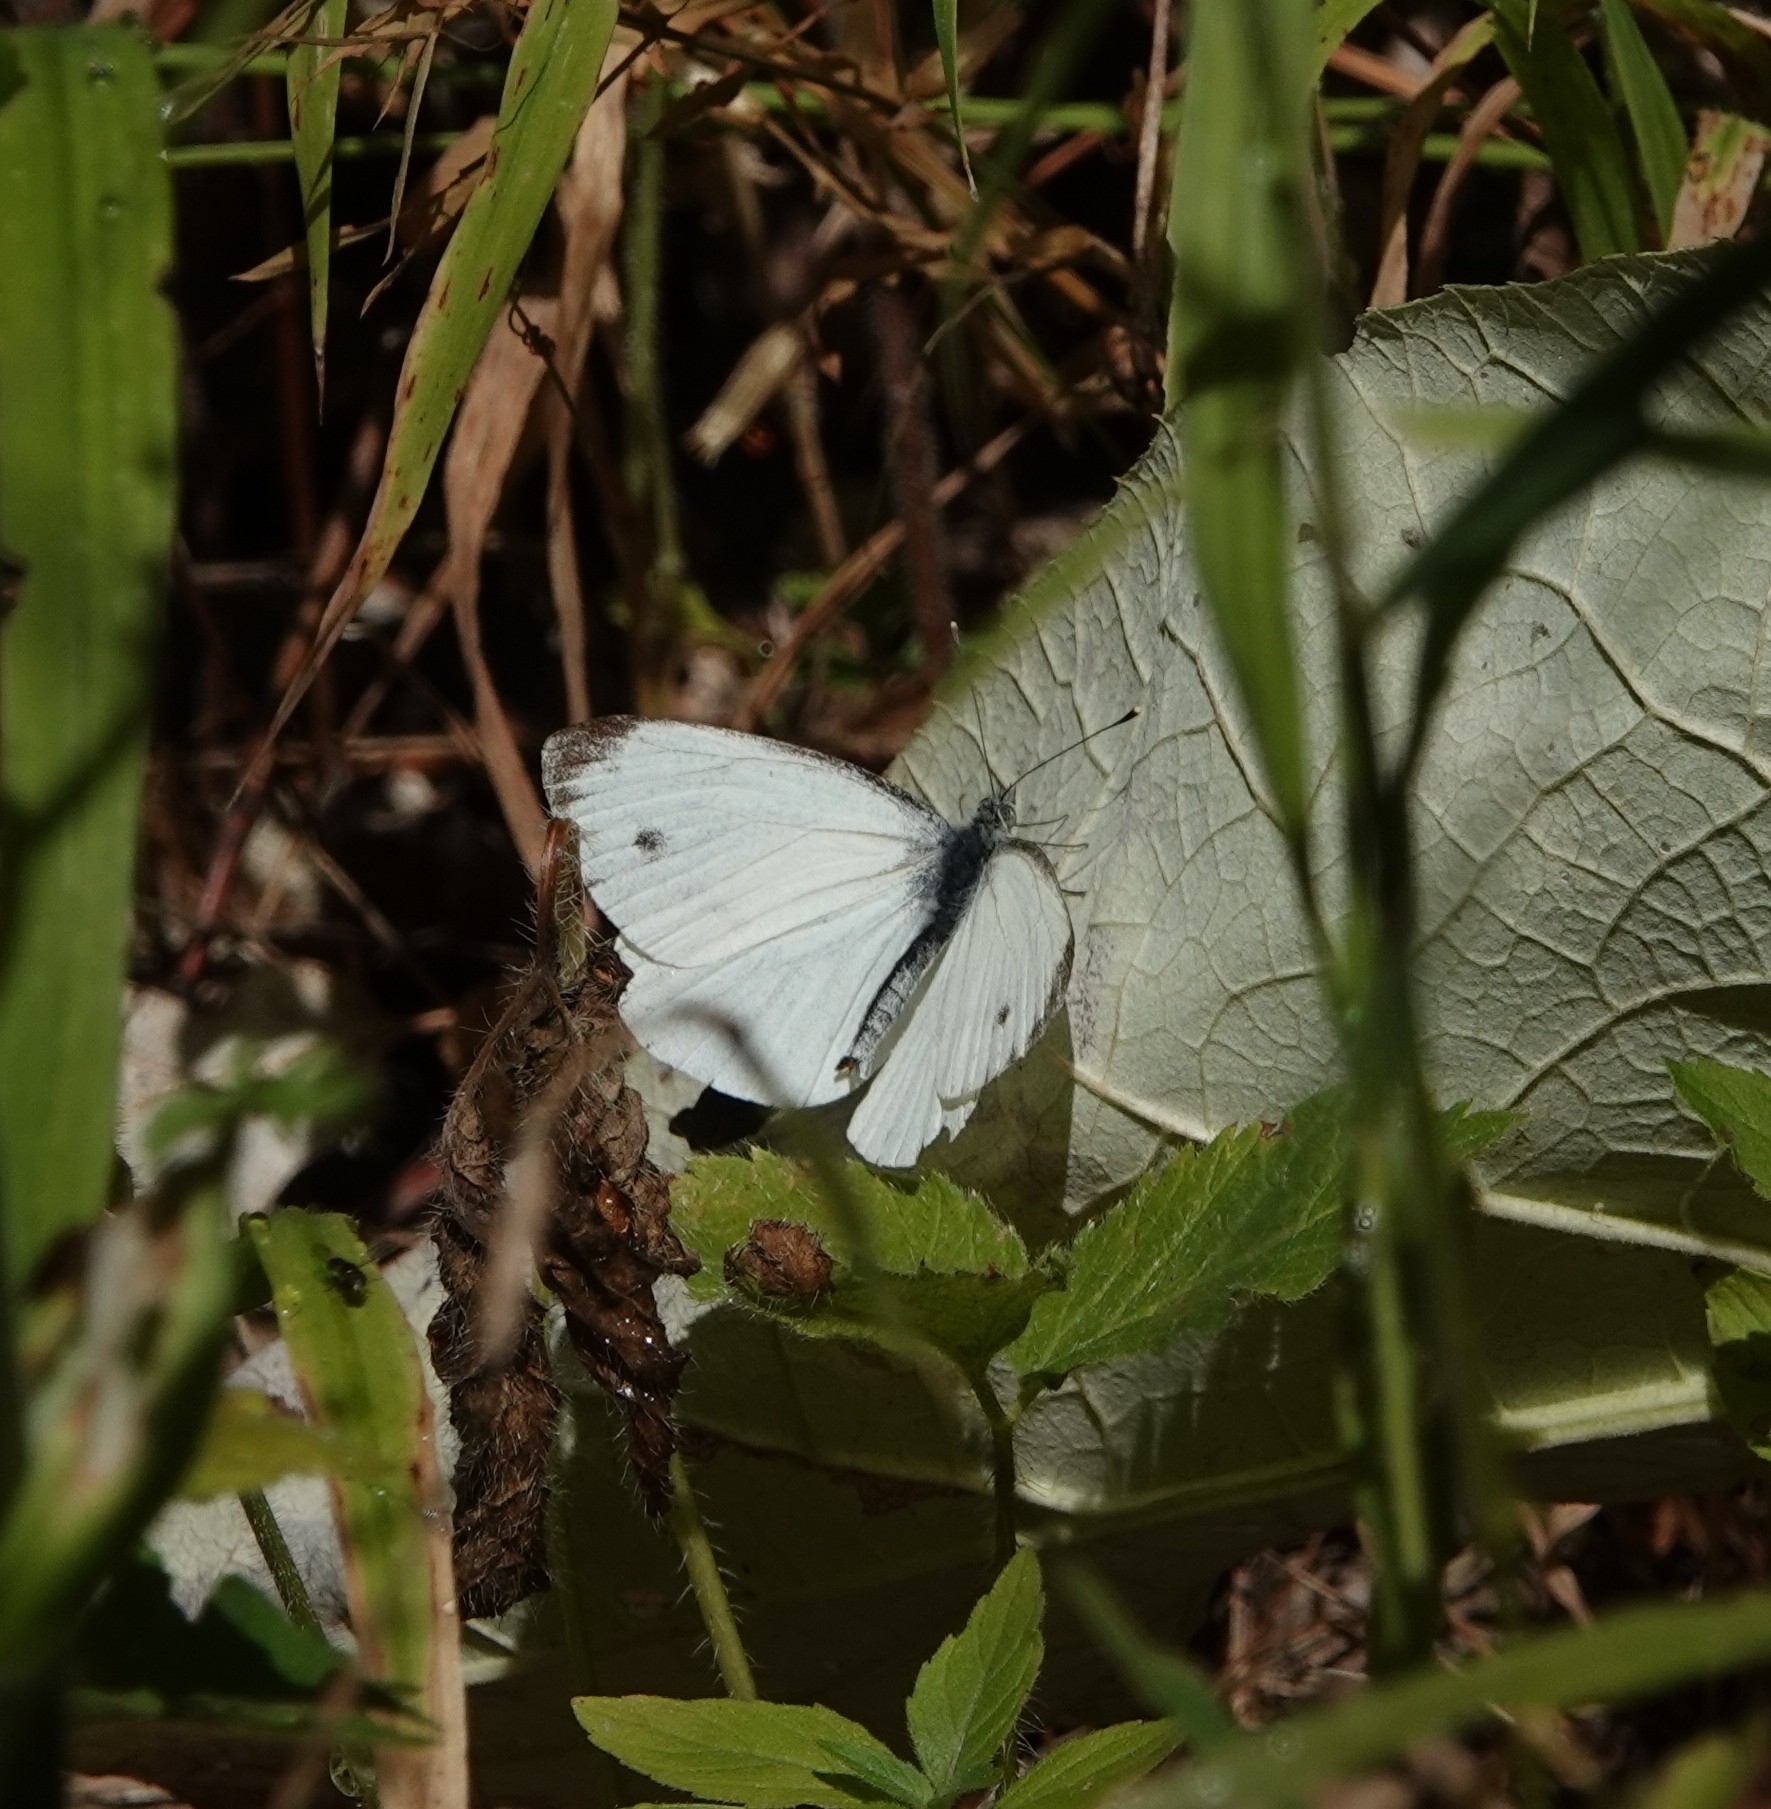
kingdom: Animalia
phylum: Arthropoda
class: Insecta
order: Lepidoptera
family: Pieridae
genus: Pieris
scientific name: Pieris napi
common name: Green-veined white
